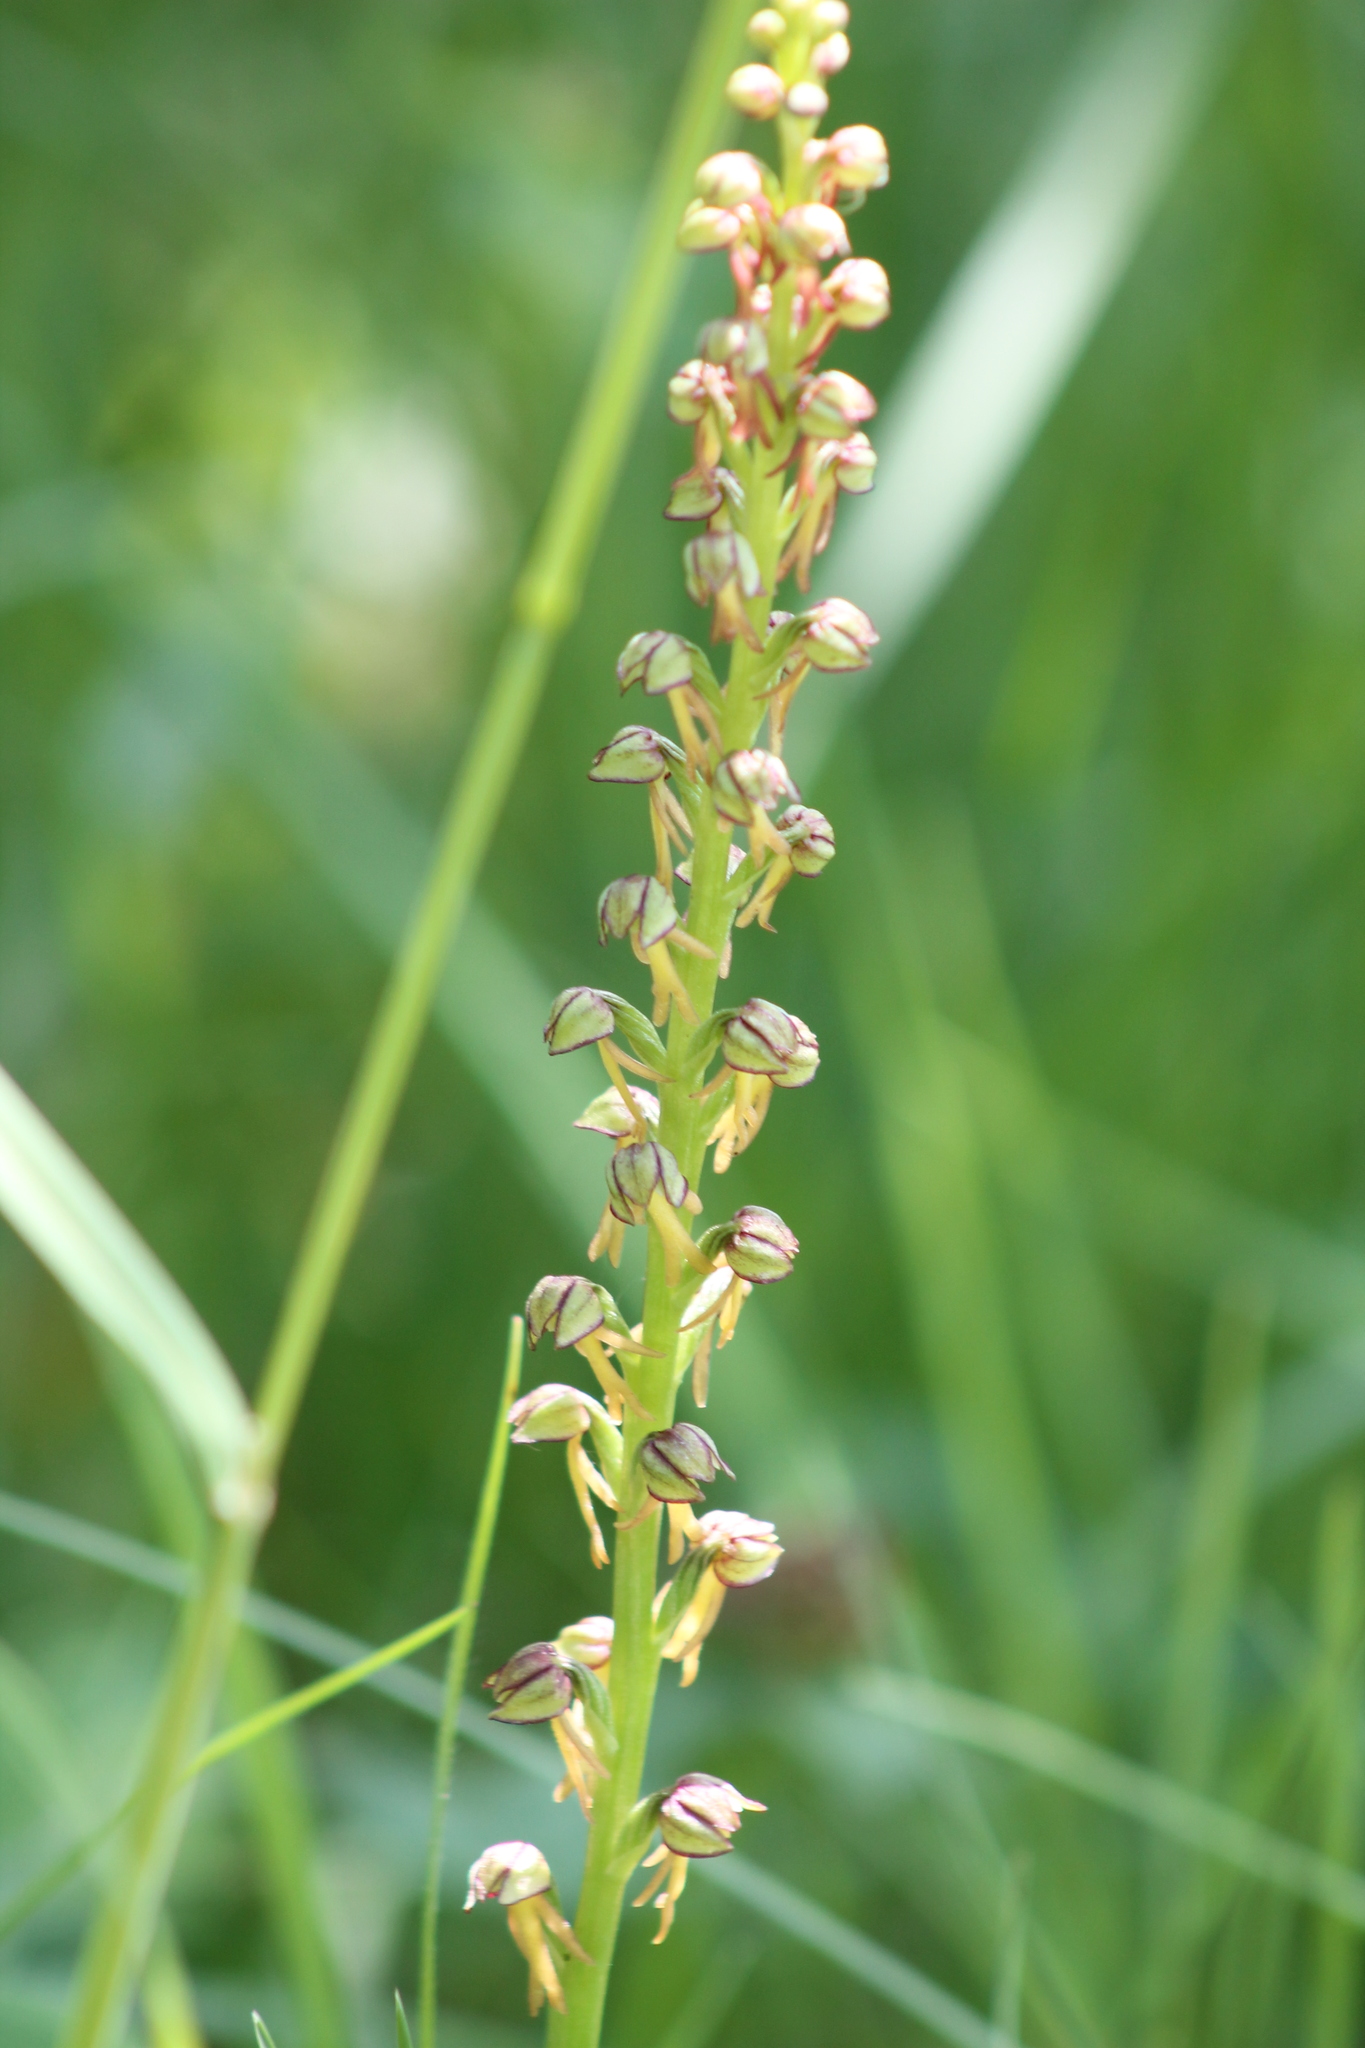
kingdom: Plantae
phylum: Tracheophyta
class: Liliopsida
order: Asparagales
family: Orchidaceae
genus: Orchis
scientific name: Orchis anthropophora
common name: Man orchid
